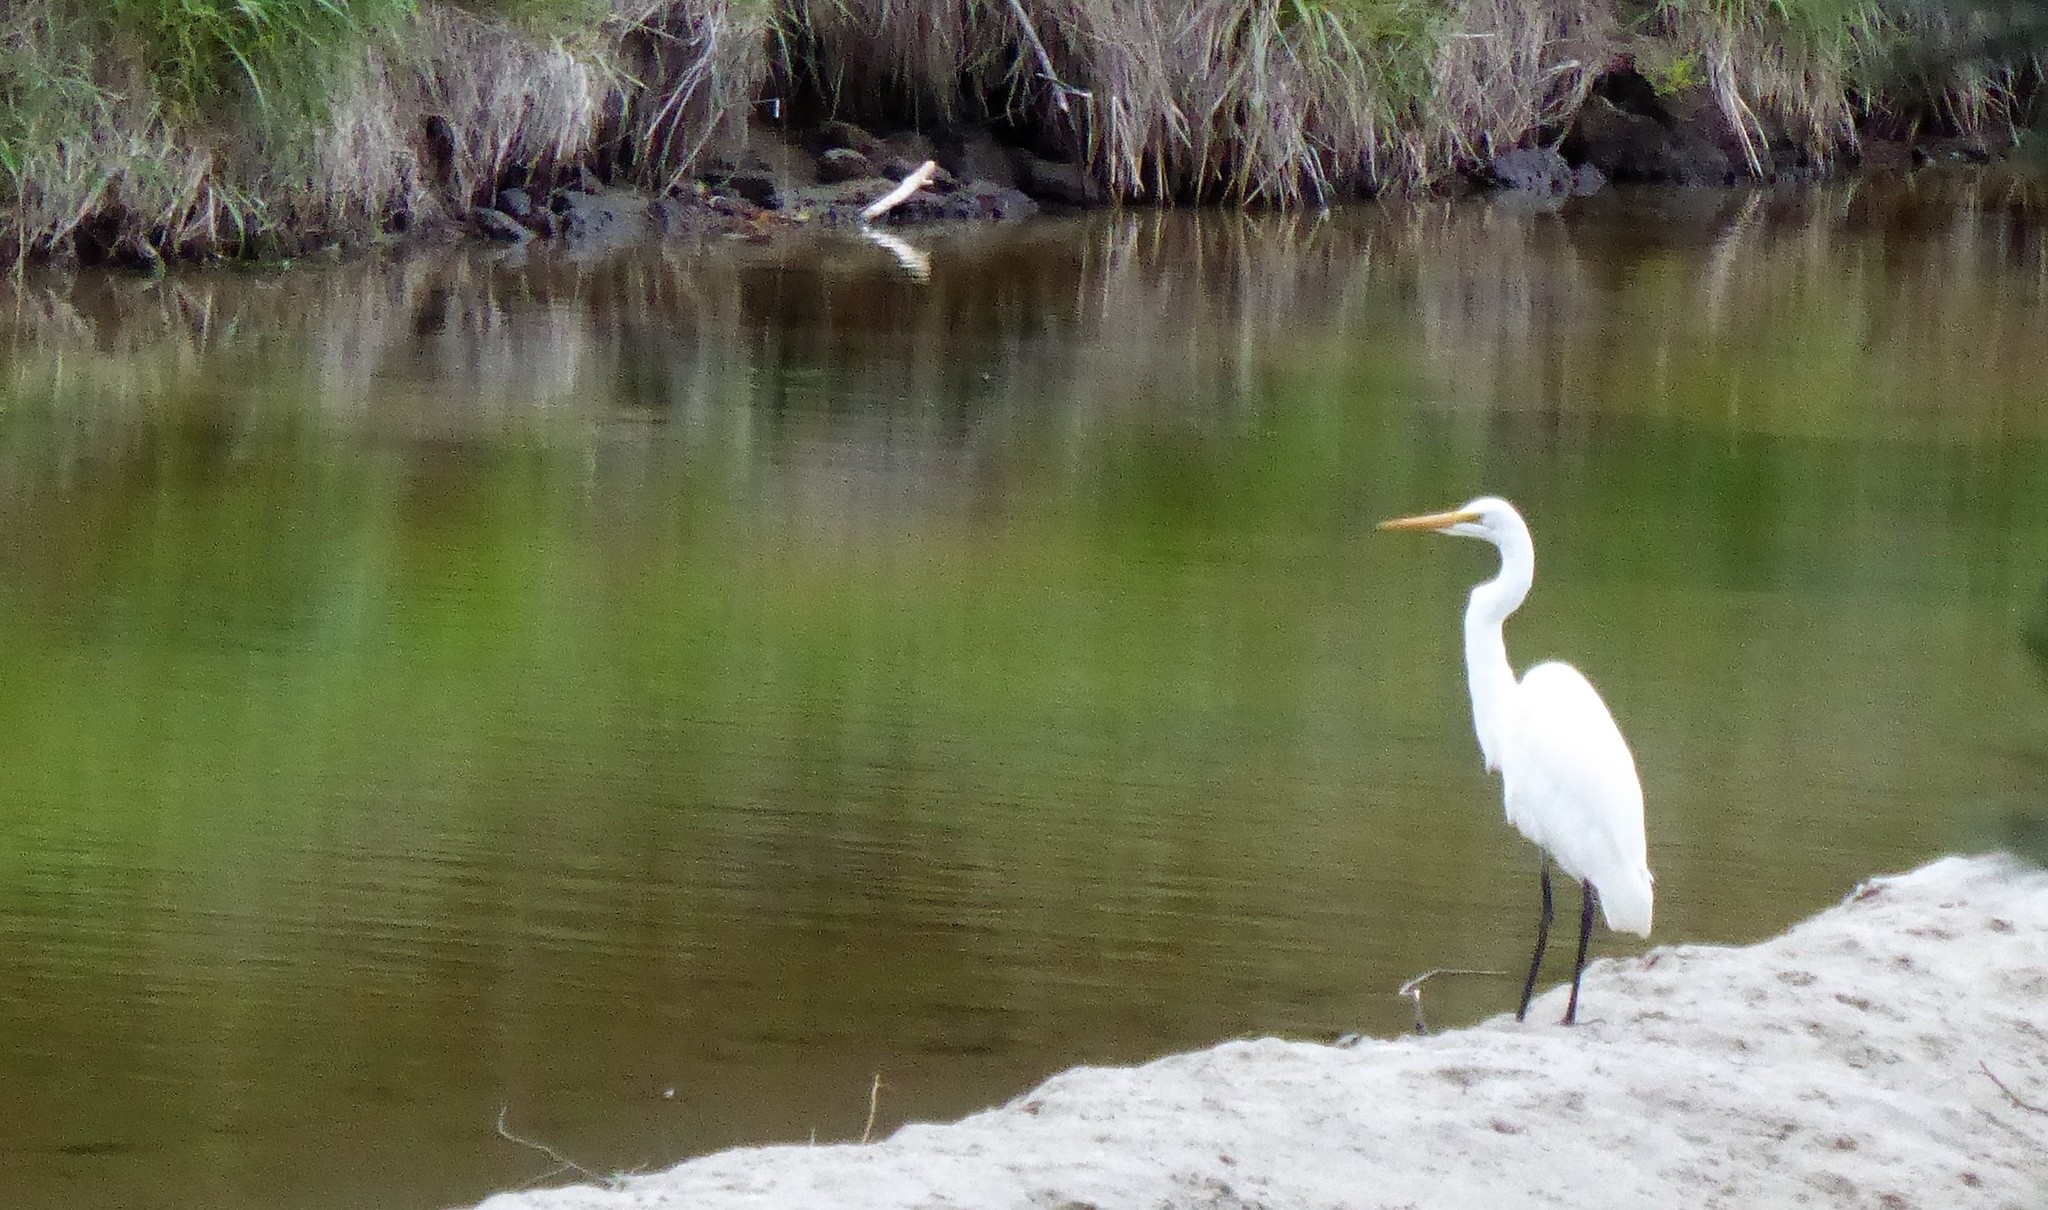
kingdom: Animalia
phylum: Chordata
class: Aves
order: Pelecaniformes
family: Ardeidae
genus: Ardea
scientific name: Ardea modesta
